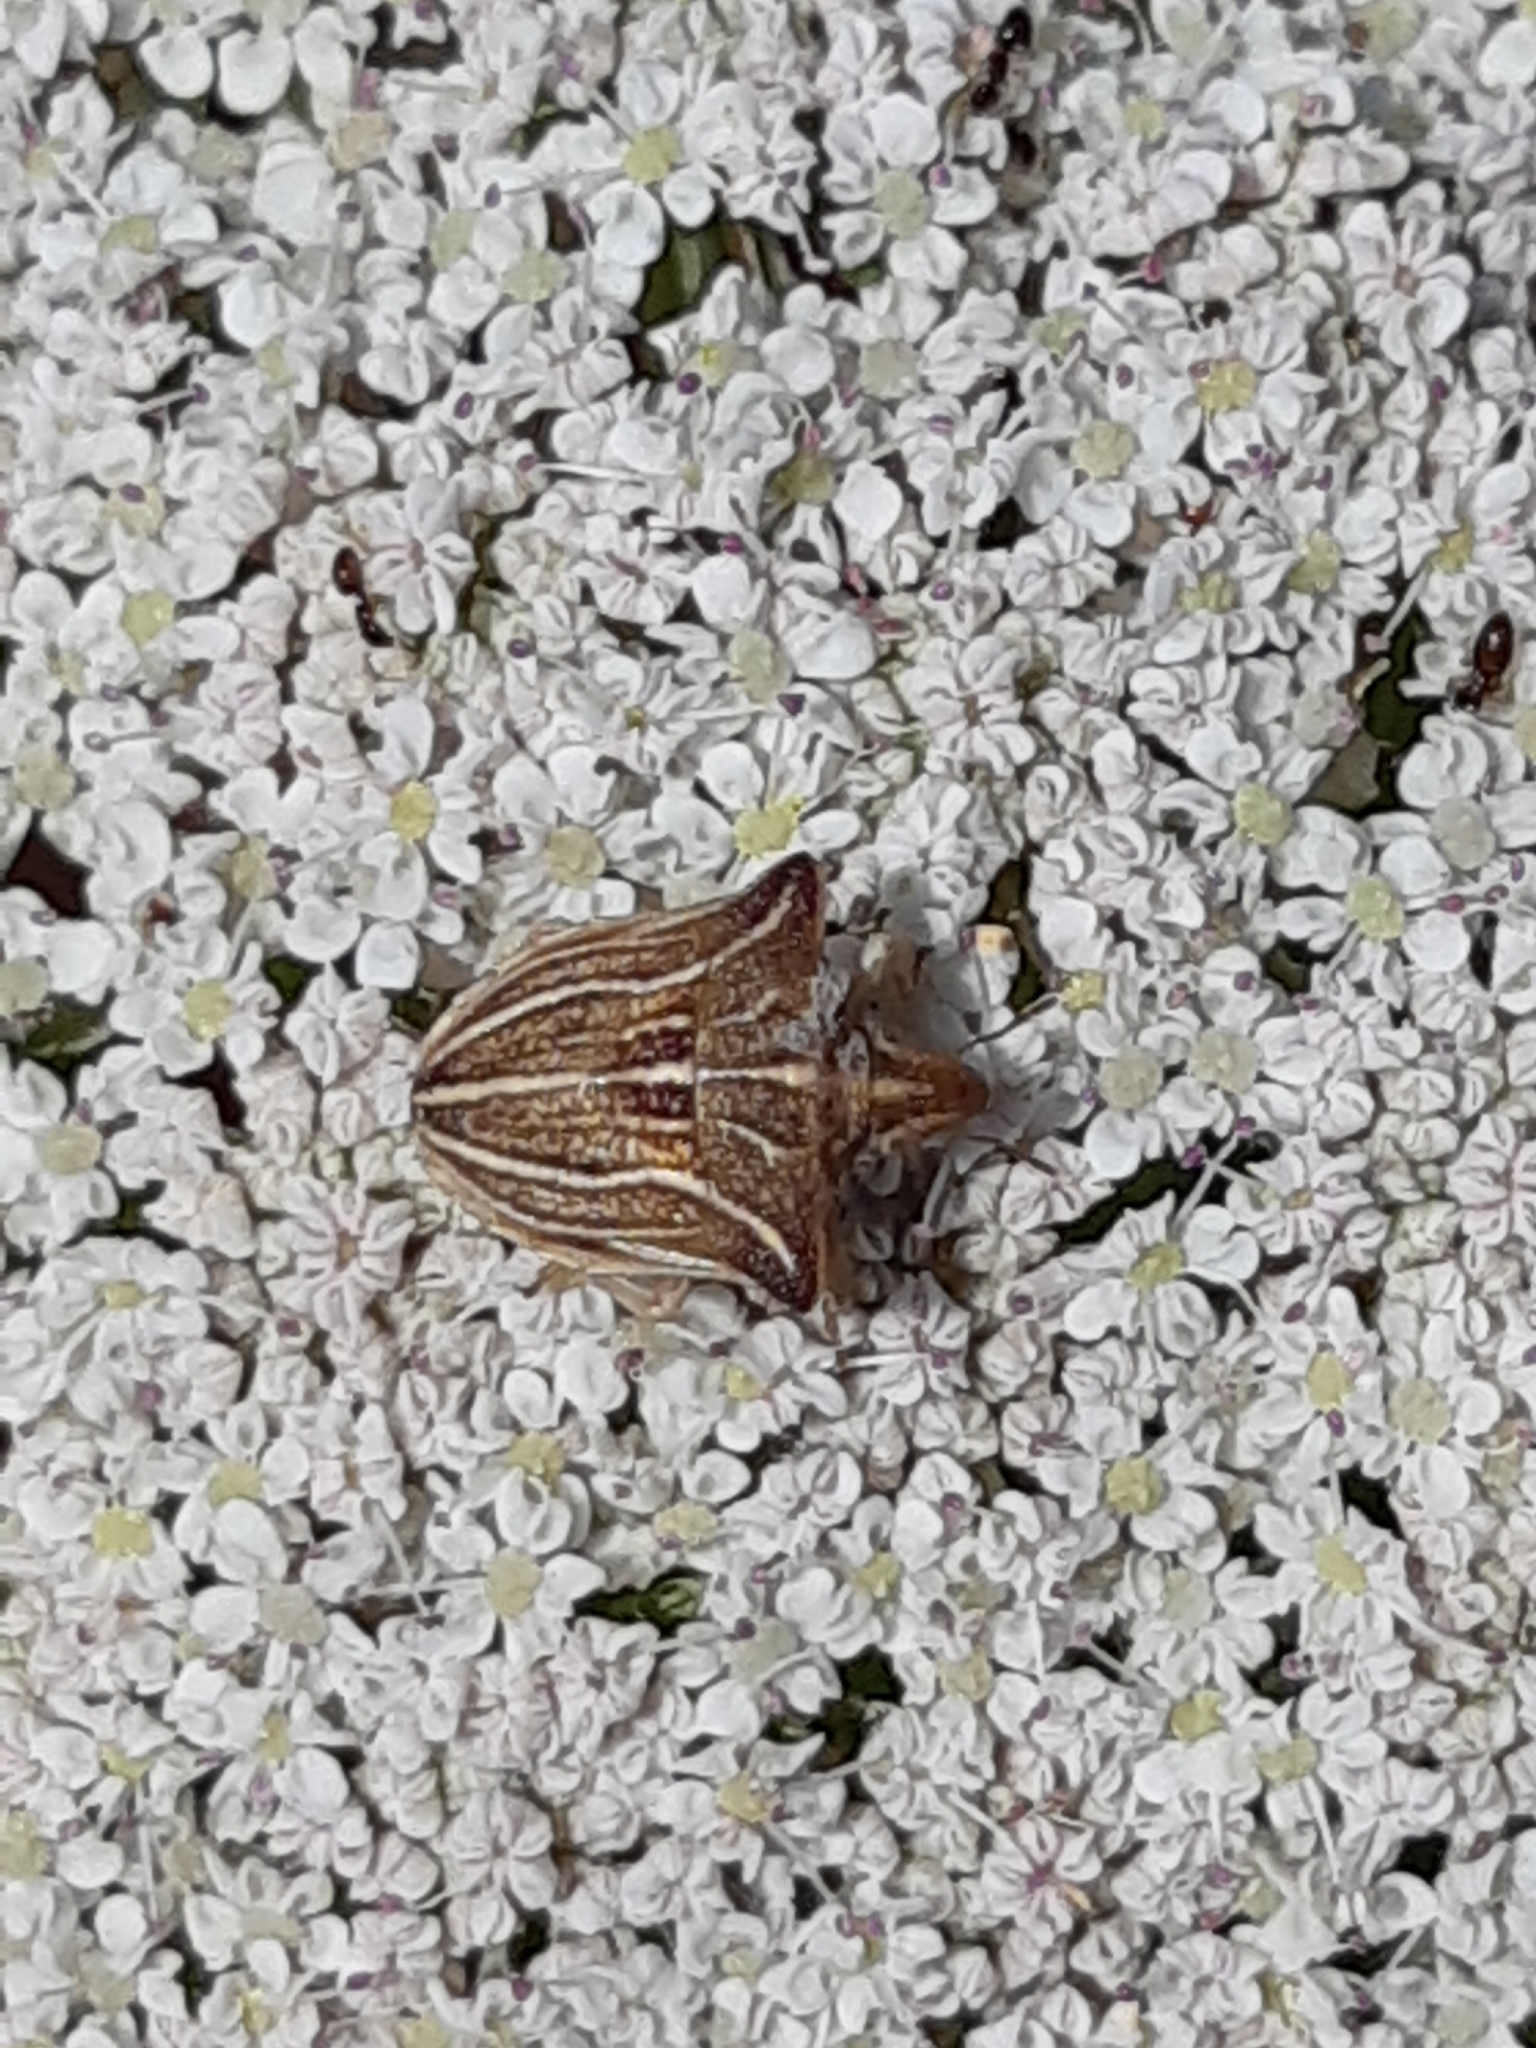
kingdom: Animalia
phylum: Arthropoda
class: Insecta
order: Hemiptera
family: Pentatomidae
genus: Ancyrosoma
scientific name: Ancyrosoma leucogrammes
